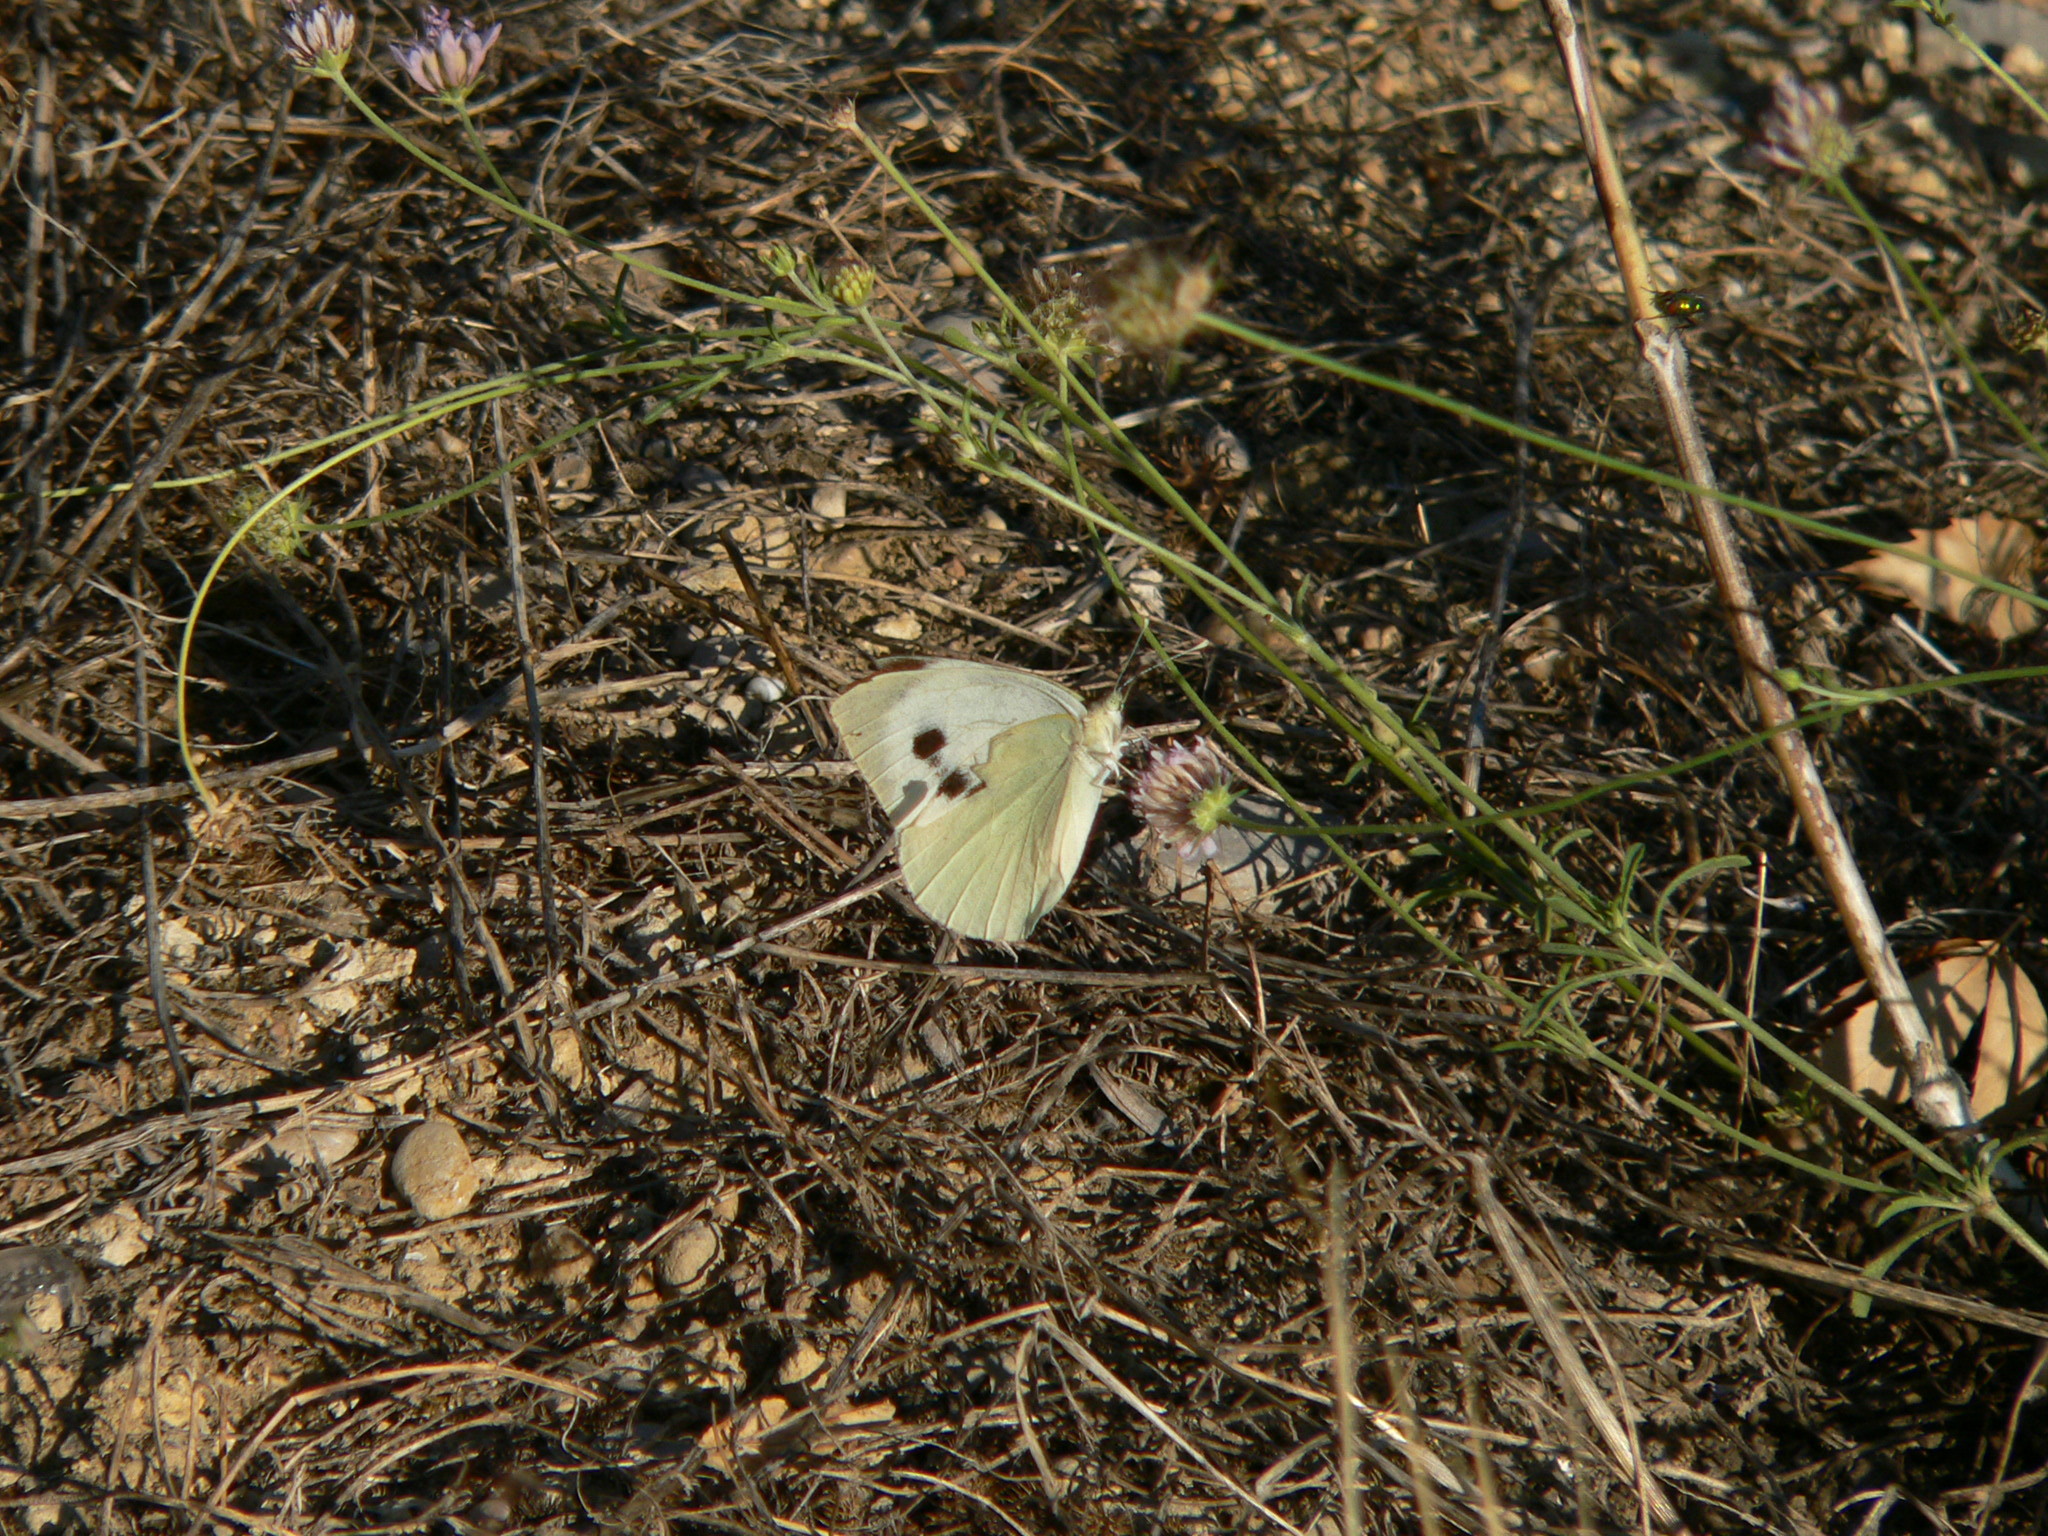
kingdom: Animalia
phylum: Arthropoda
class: Insecta
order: Lepidoptera
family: Pieridae
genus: Pieris
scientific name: Pieris brassicae
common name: Large white
